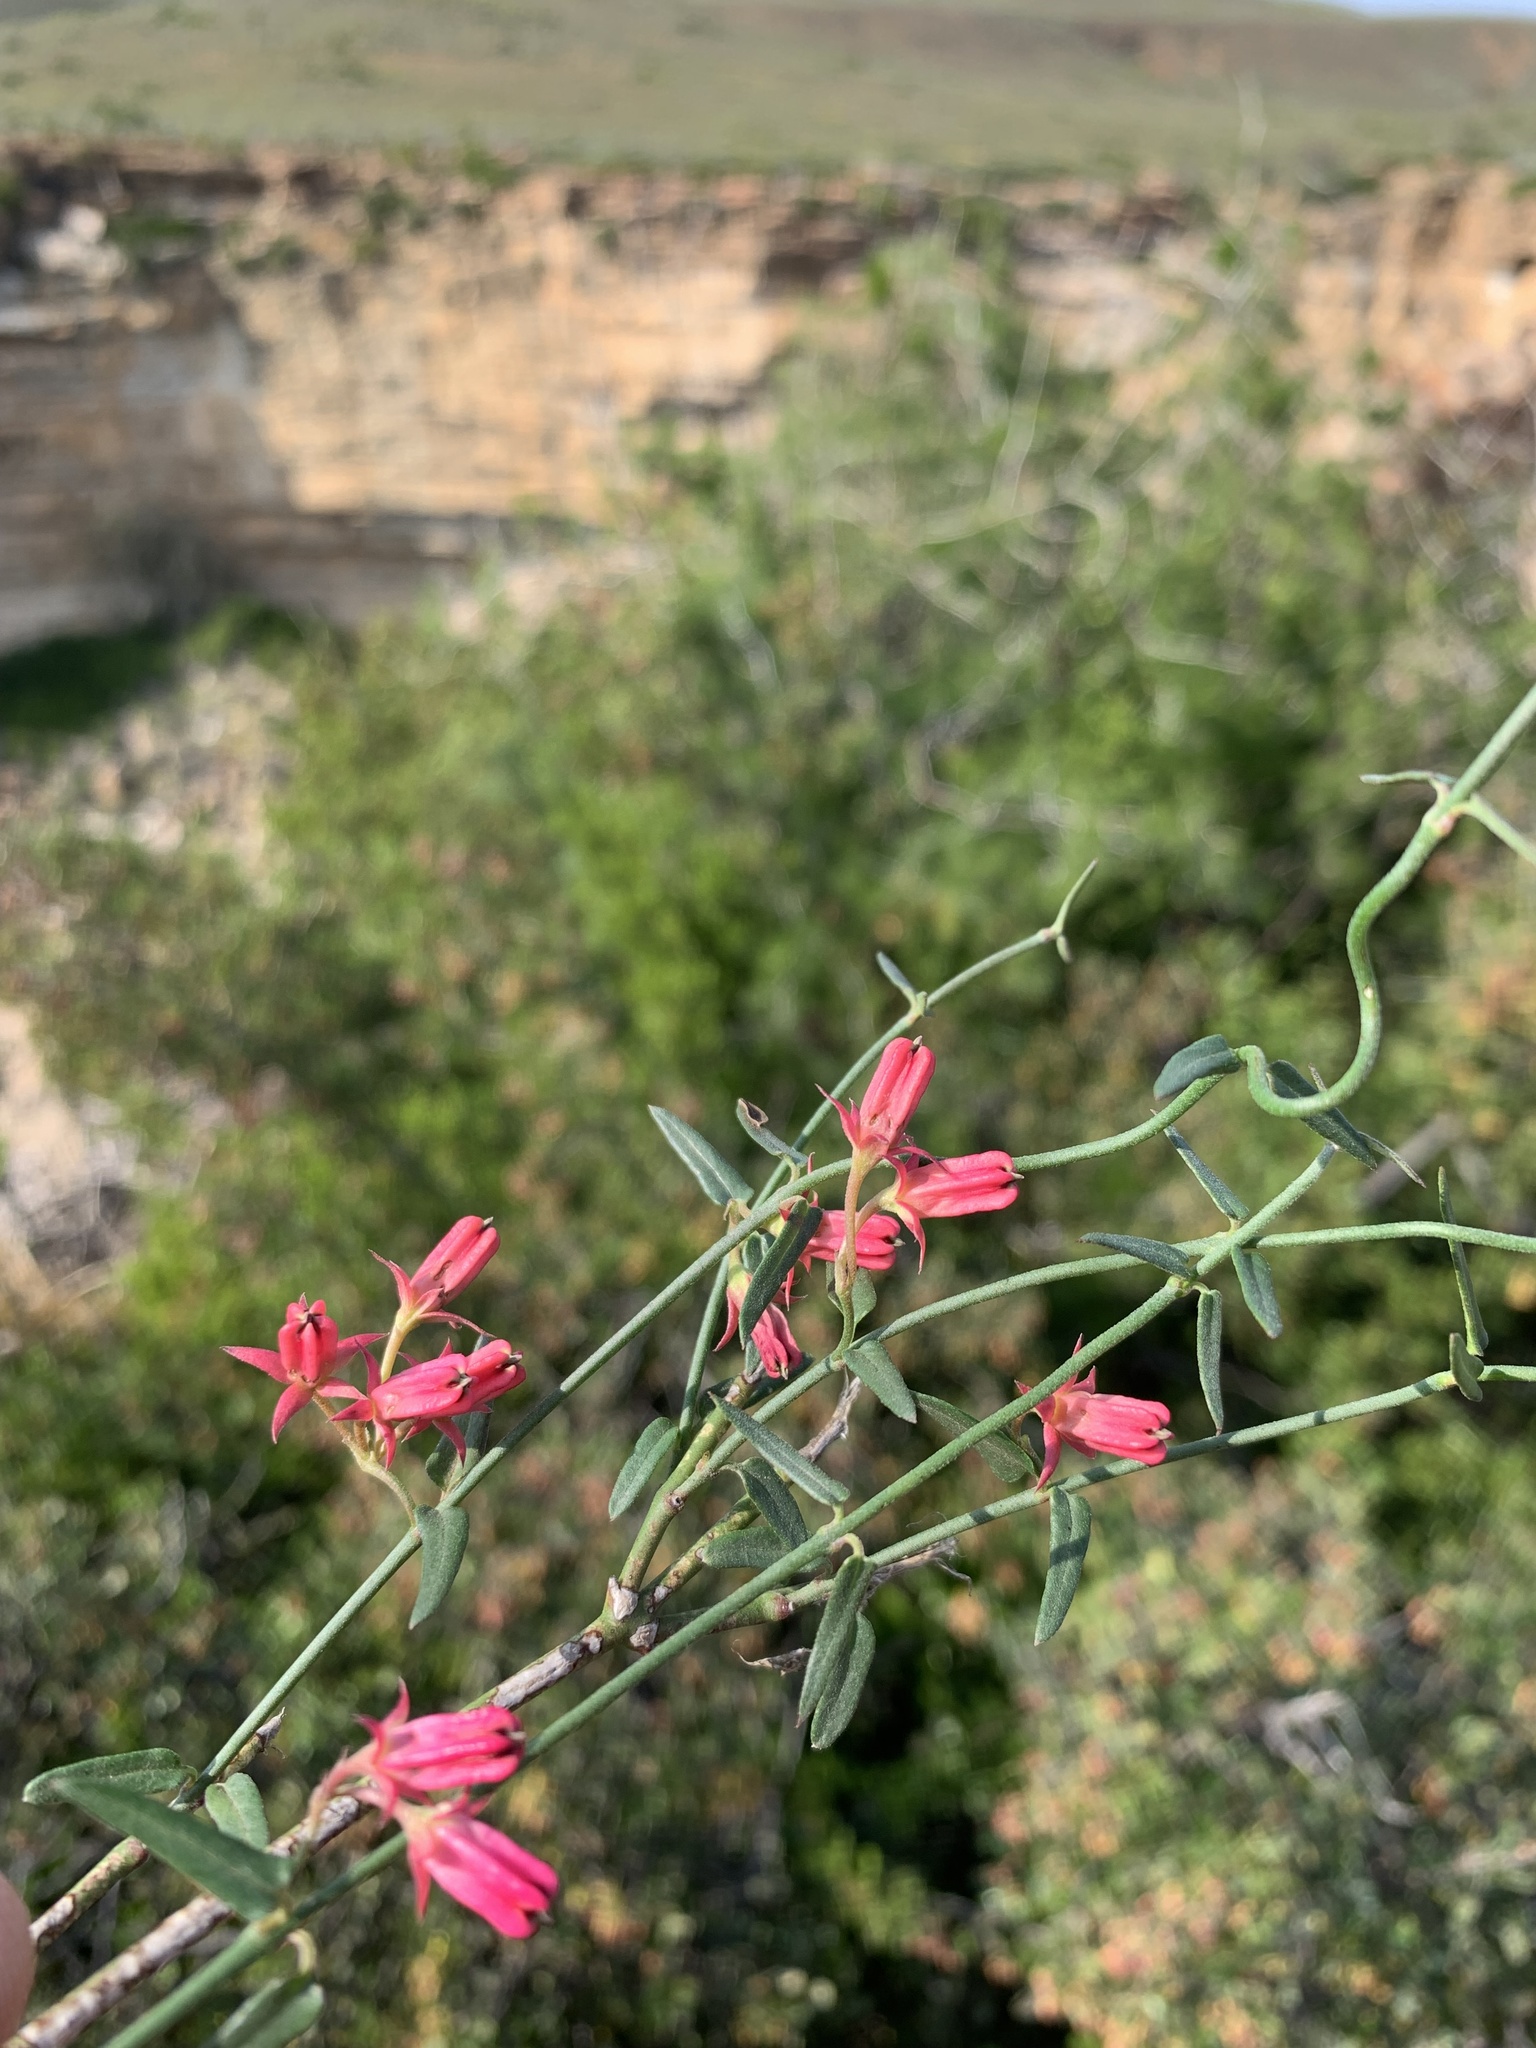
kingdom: Plantae
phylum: Tracheophyta
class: Magnoliopsida
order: Gentianales
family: Apocynaceae
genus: Microloma
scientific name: Microloma sagittatum
